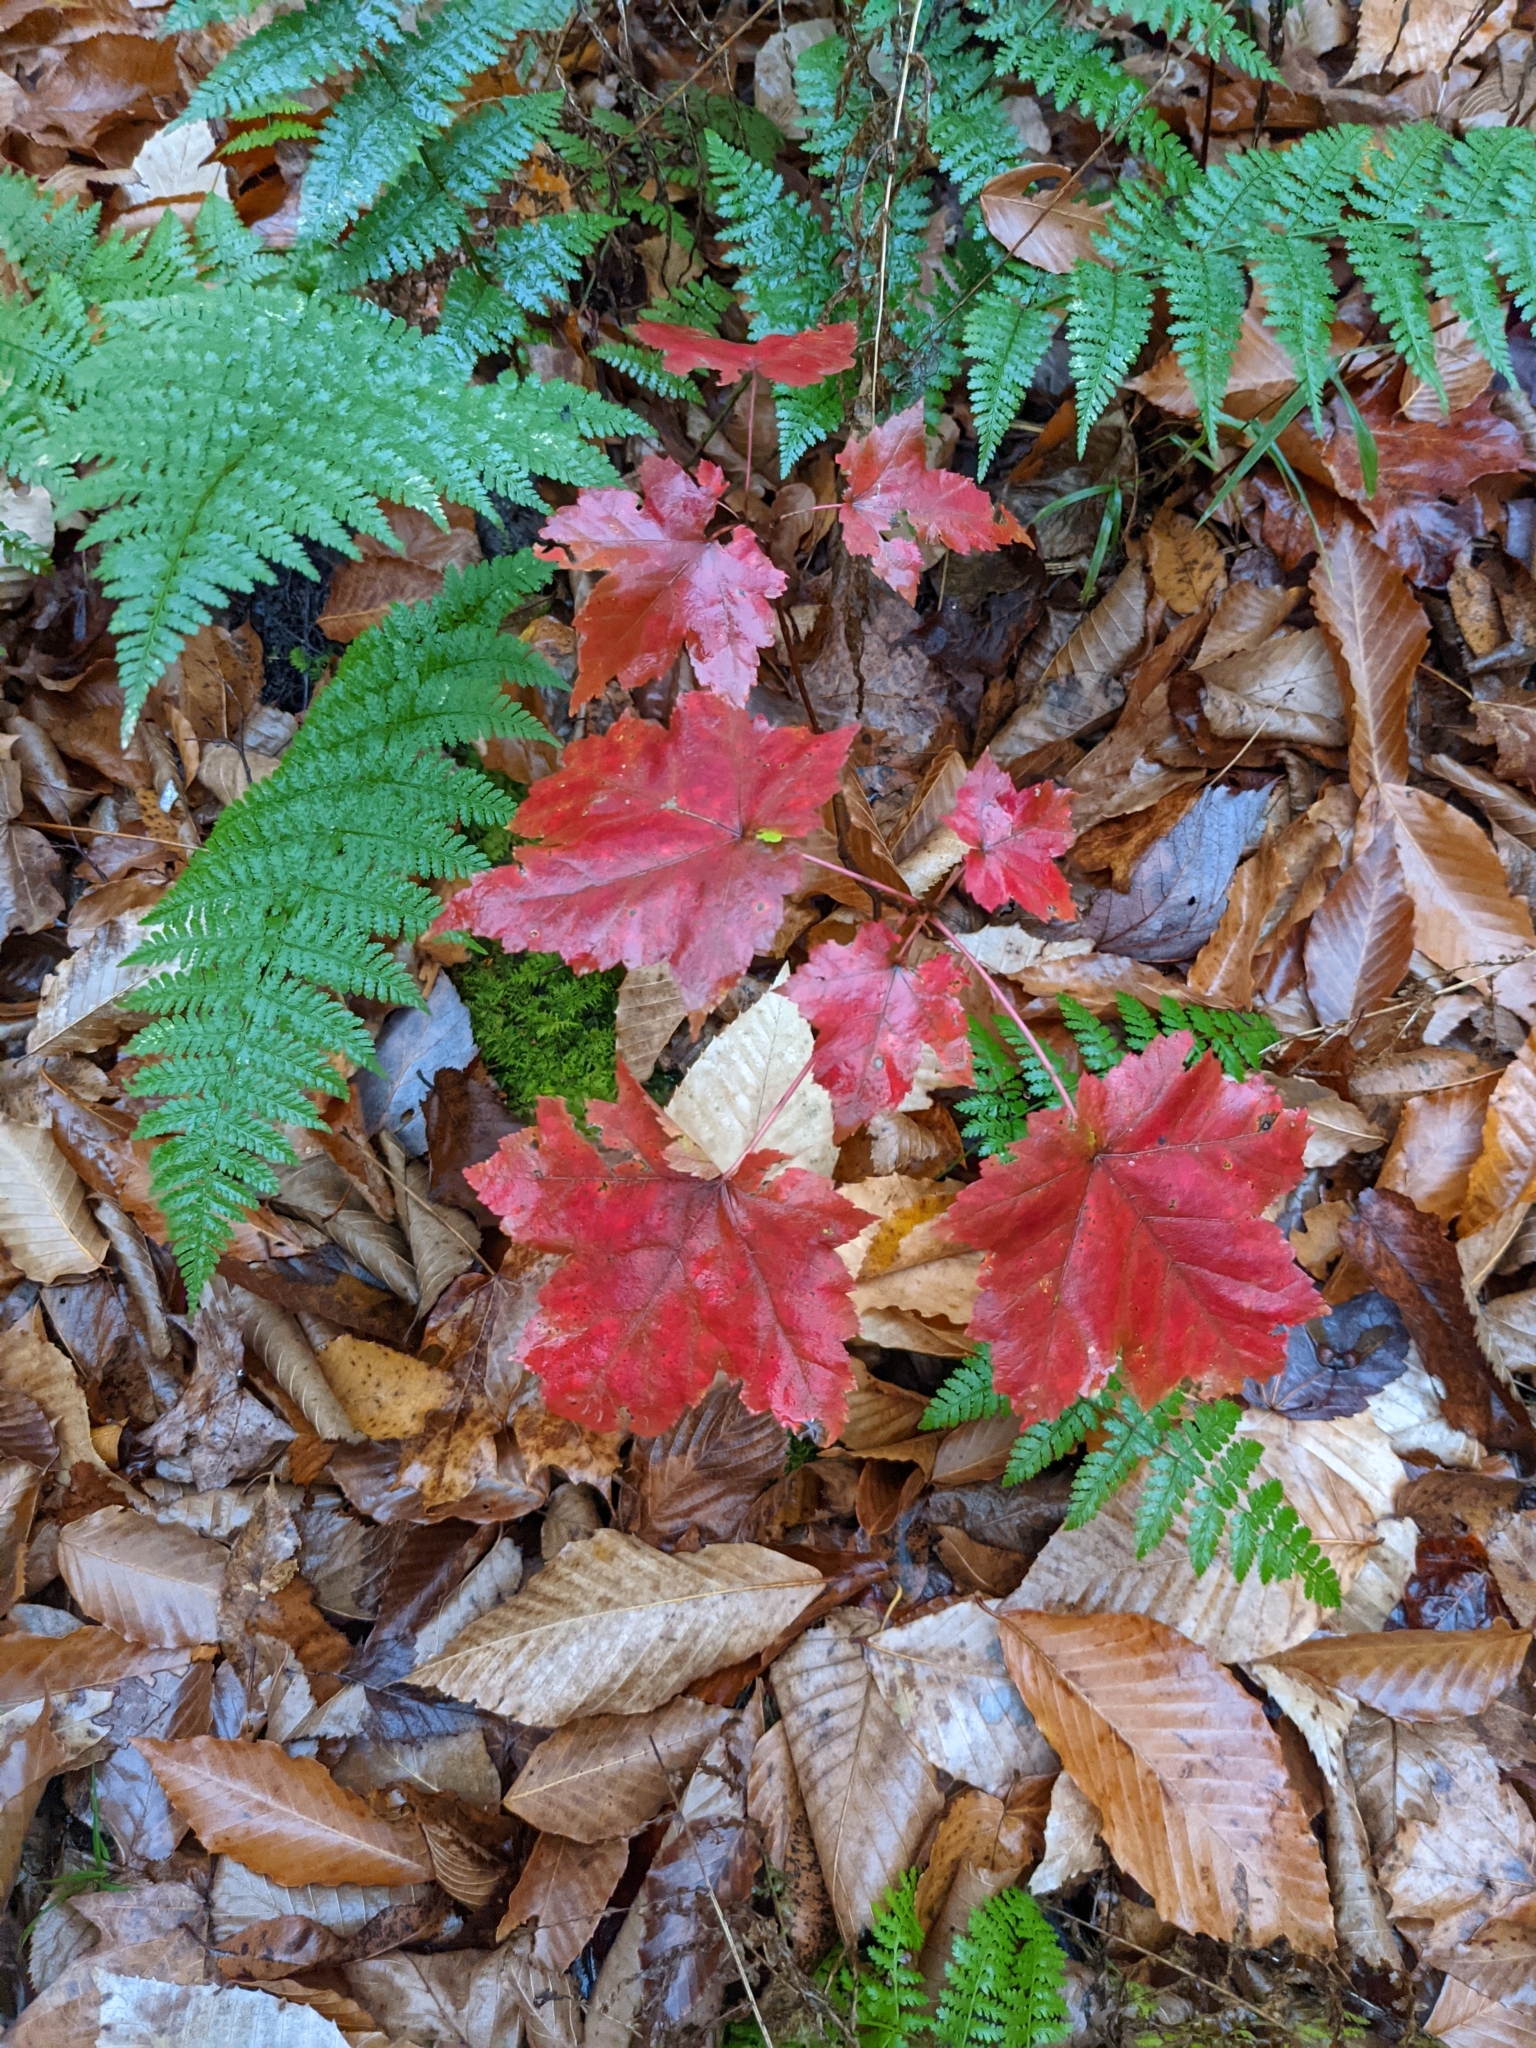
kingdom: Plantae
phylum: Tracheophyta
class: Magnoliopsida
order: Sapindales
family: Sapindaceae
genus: Acer
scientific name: Acer rubrum
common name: Red maple
